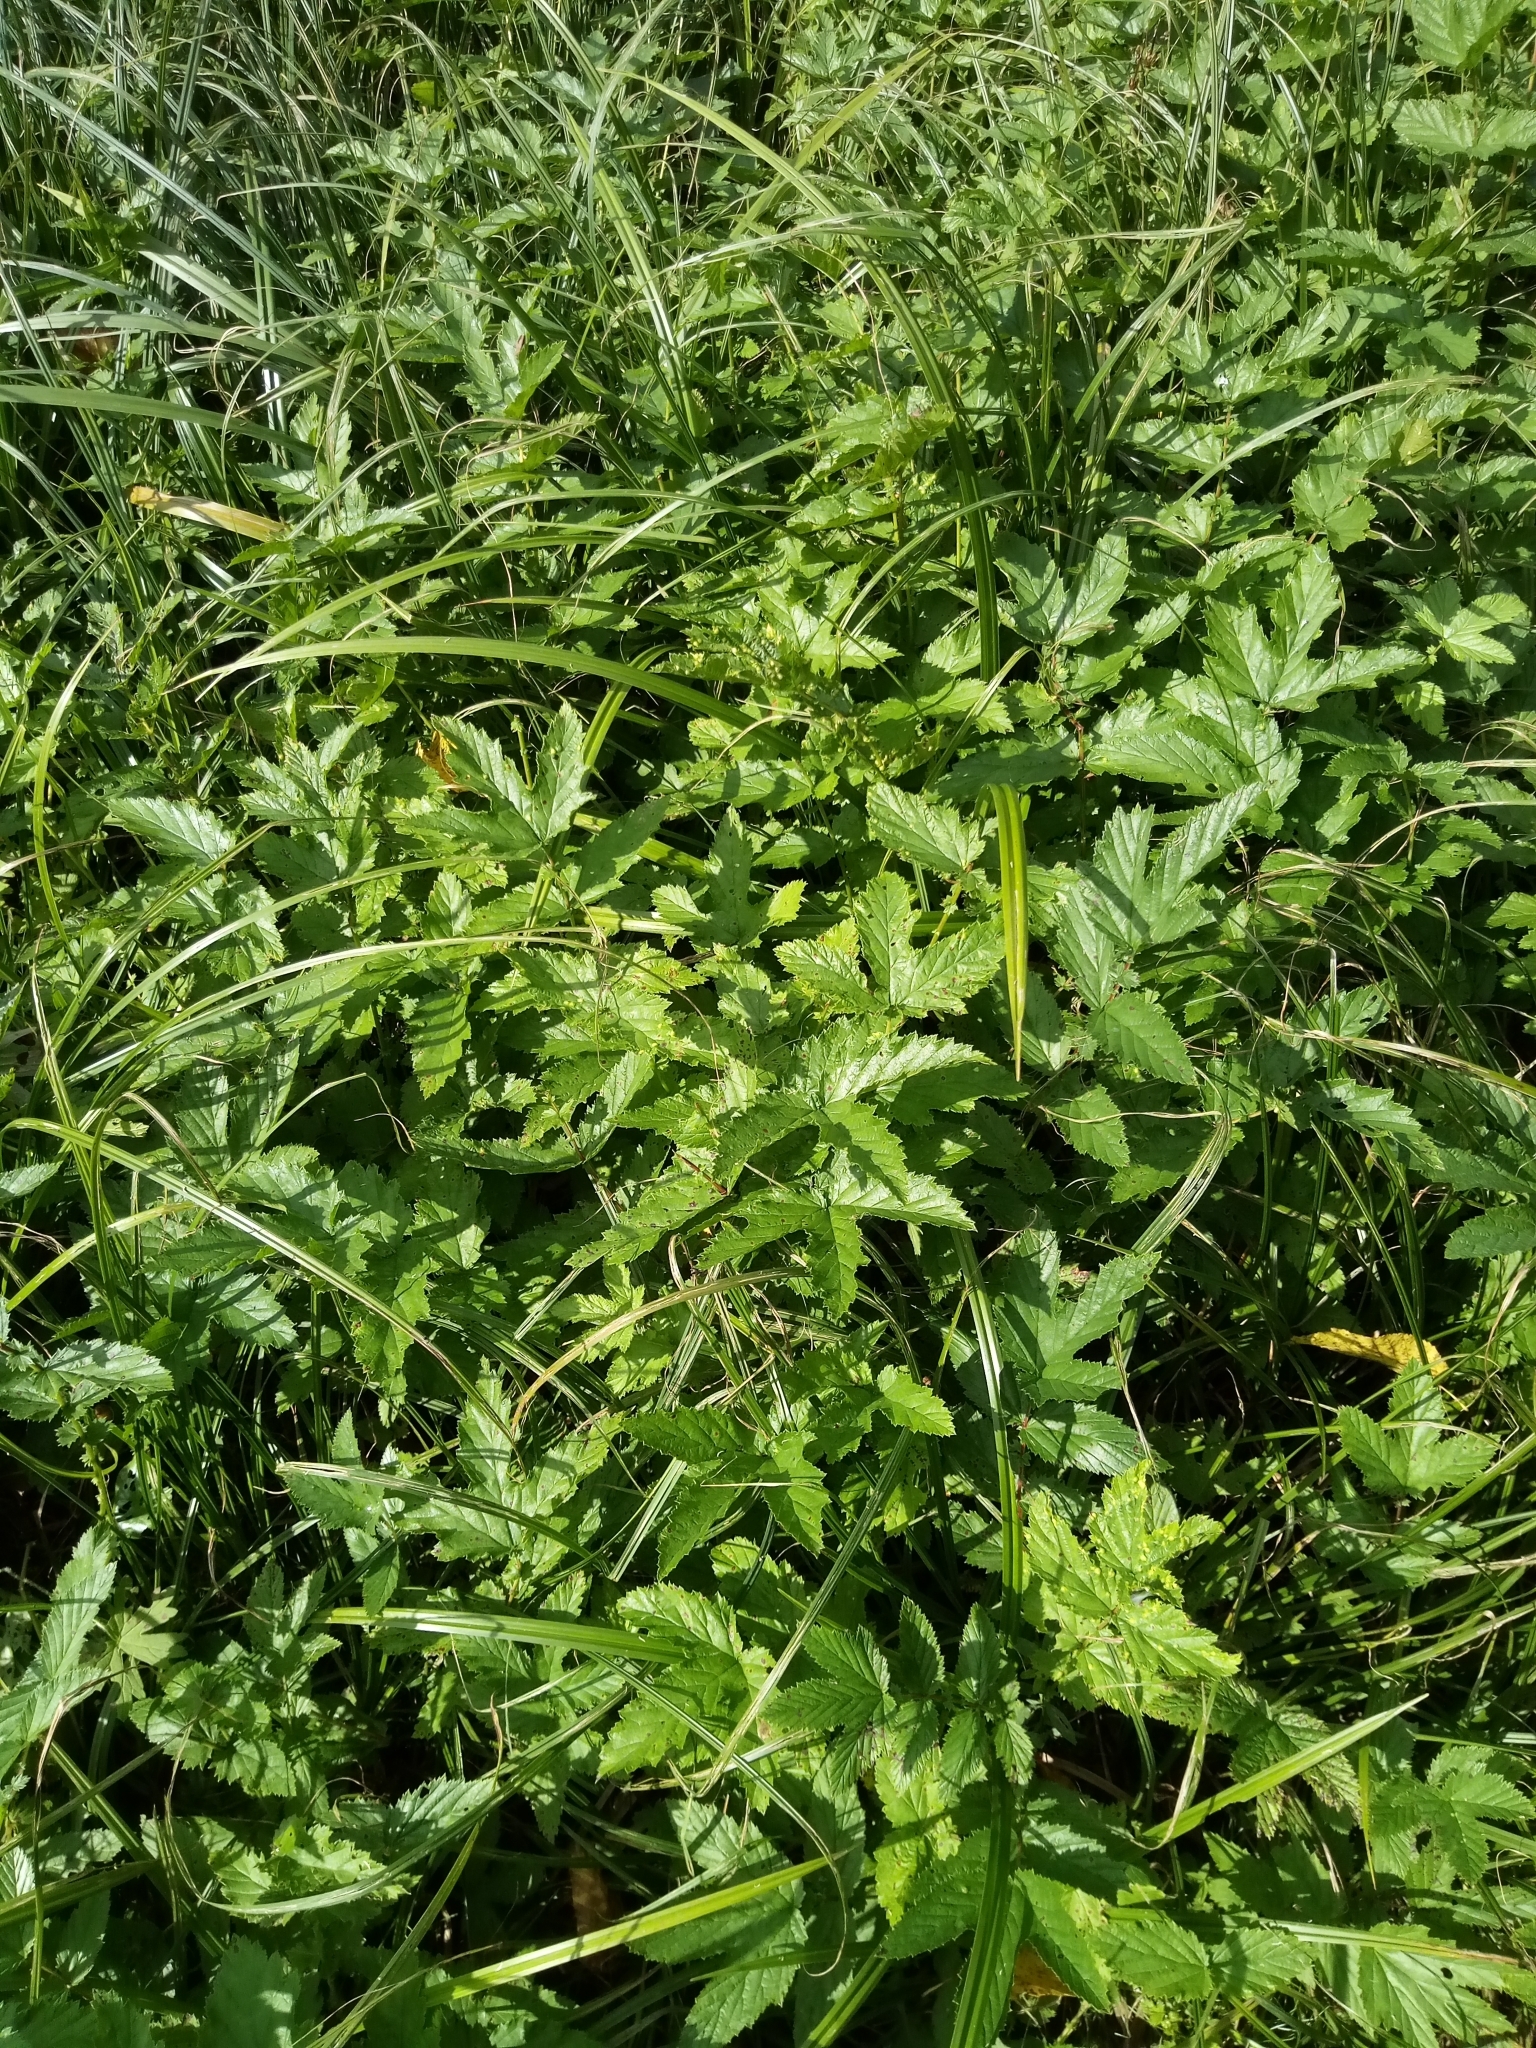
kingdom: Plantae
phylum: Tracheophyta
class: Magnoliopsida
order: Rosales
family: Rosaceae
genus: Filipendula
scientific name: Filipendula ulmaria
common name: Meadowsweet
